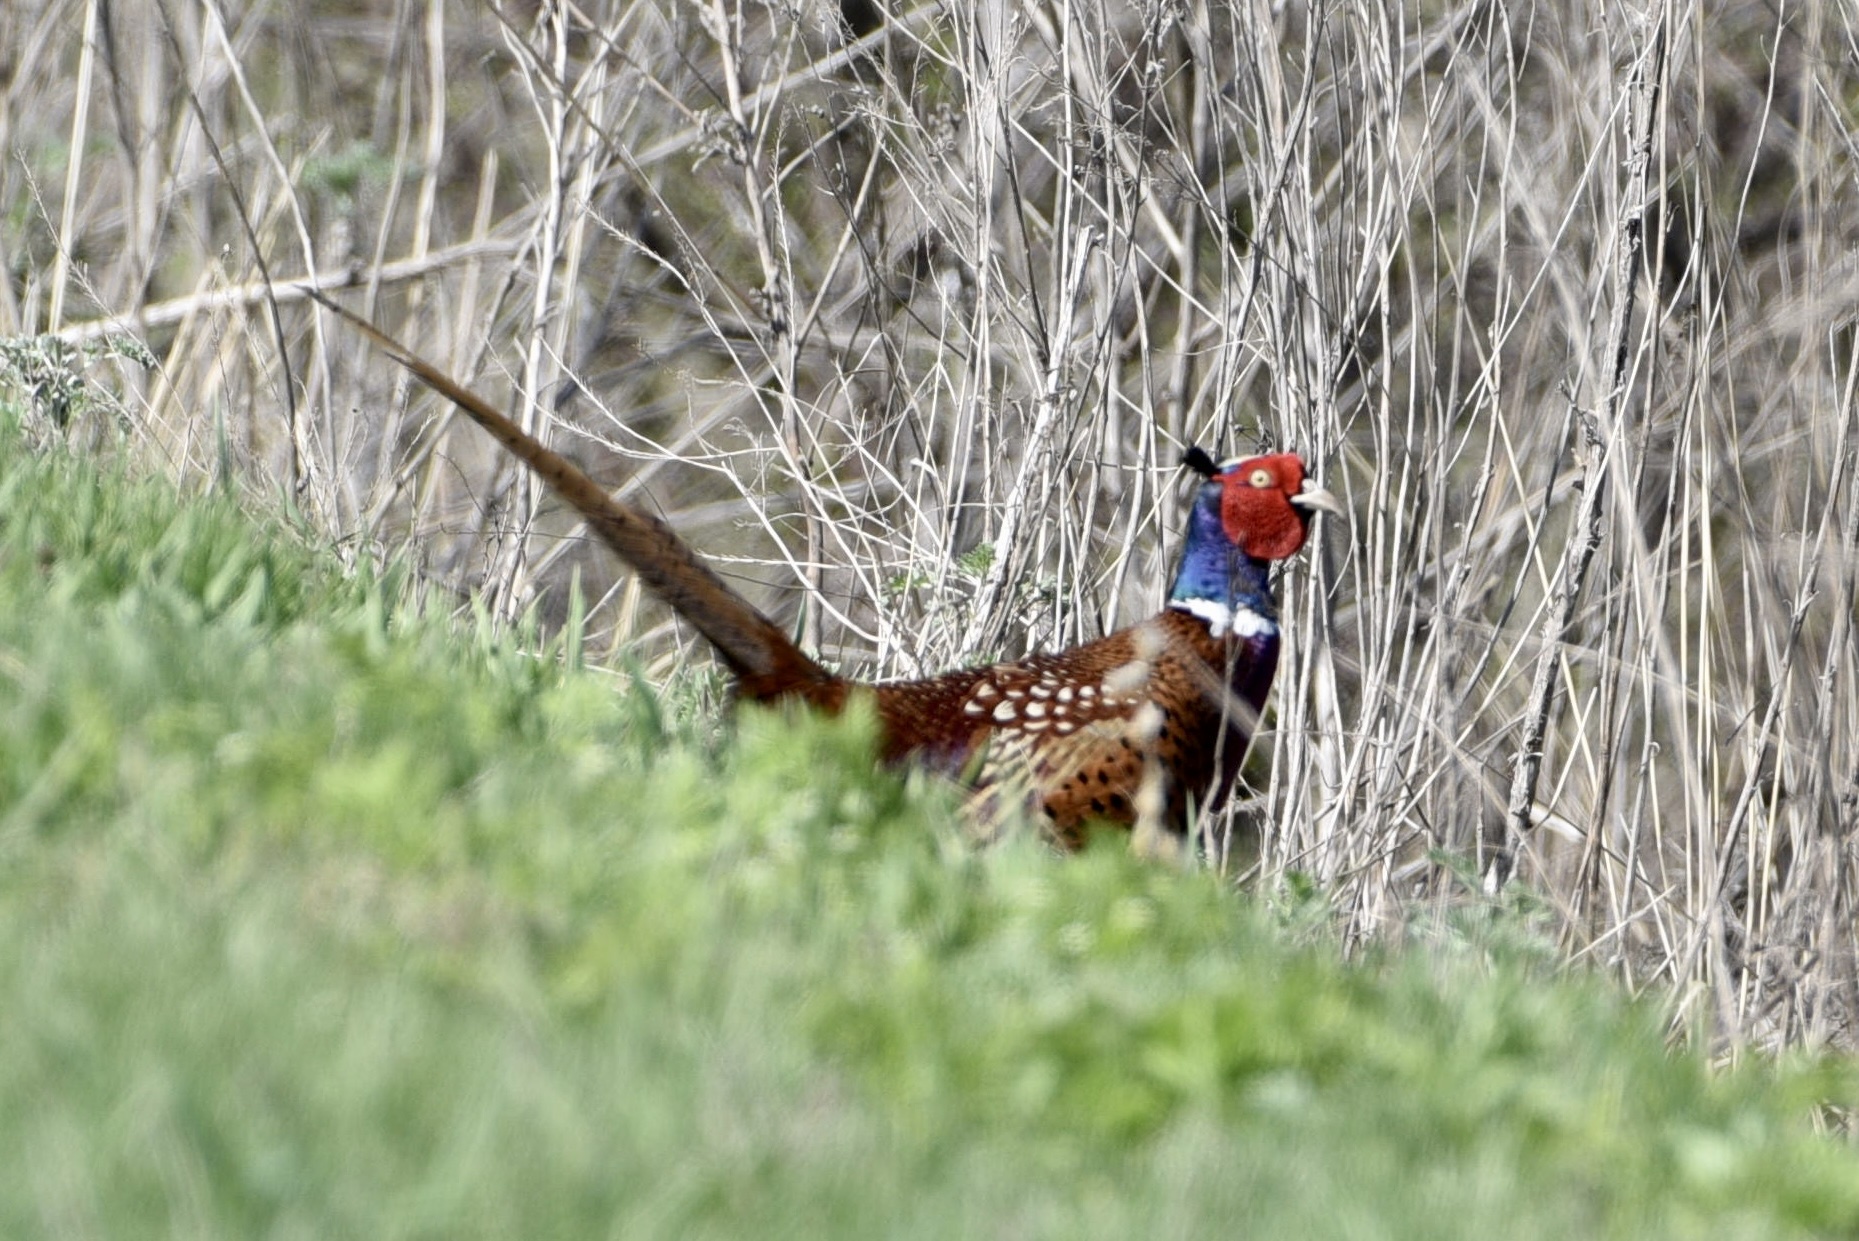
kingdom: Animalia
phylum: Chordata
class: Aves
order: Galliformes
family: Phasianidae
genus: Phasianus
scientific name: Phasianus colchicus
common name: Common pheasant
